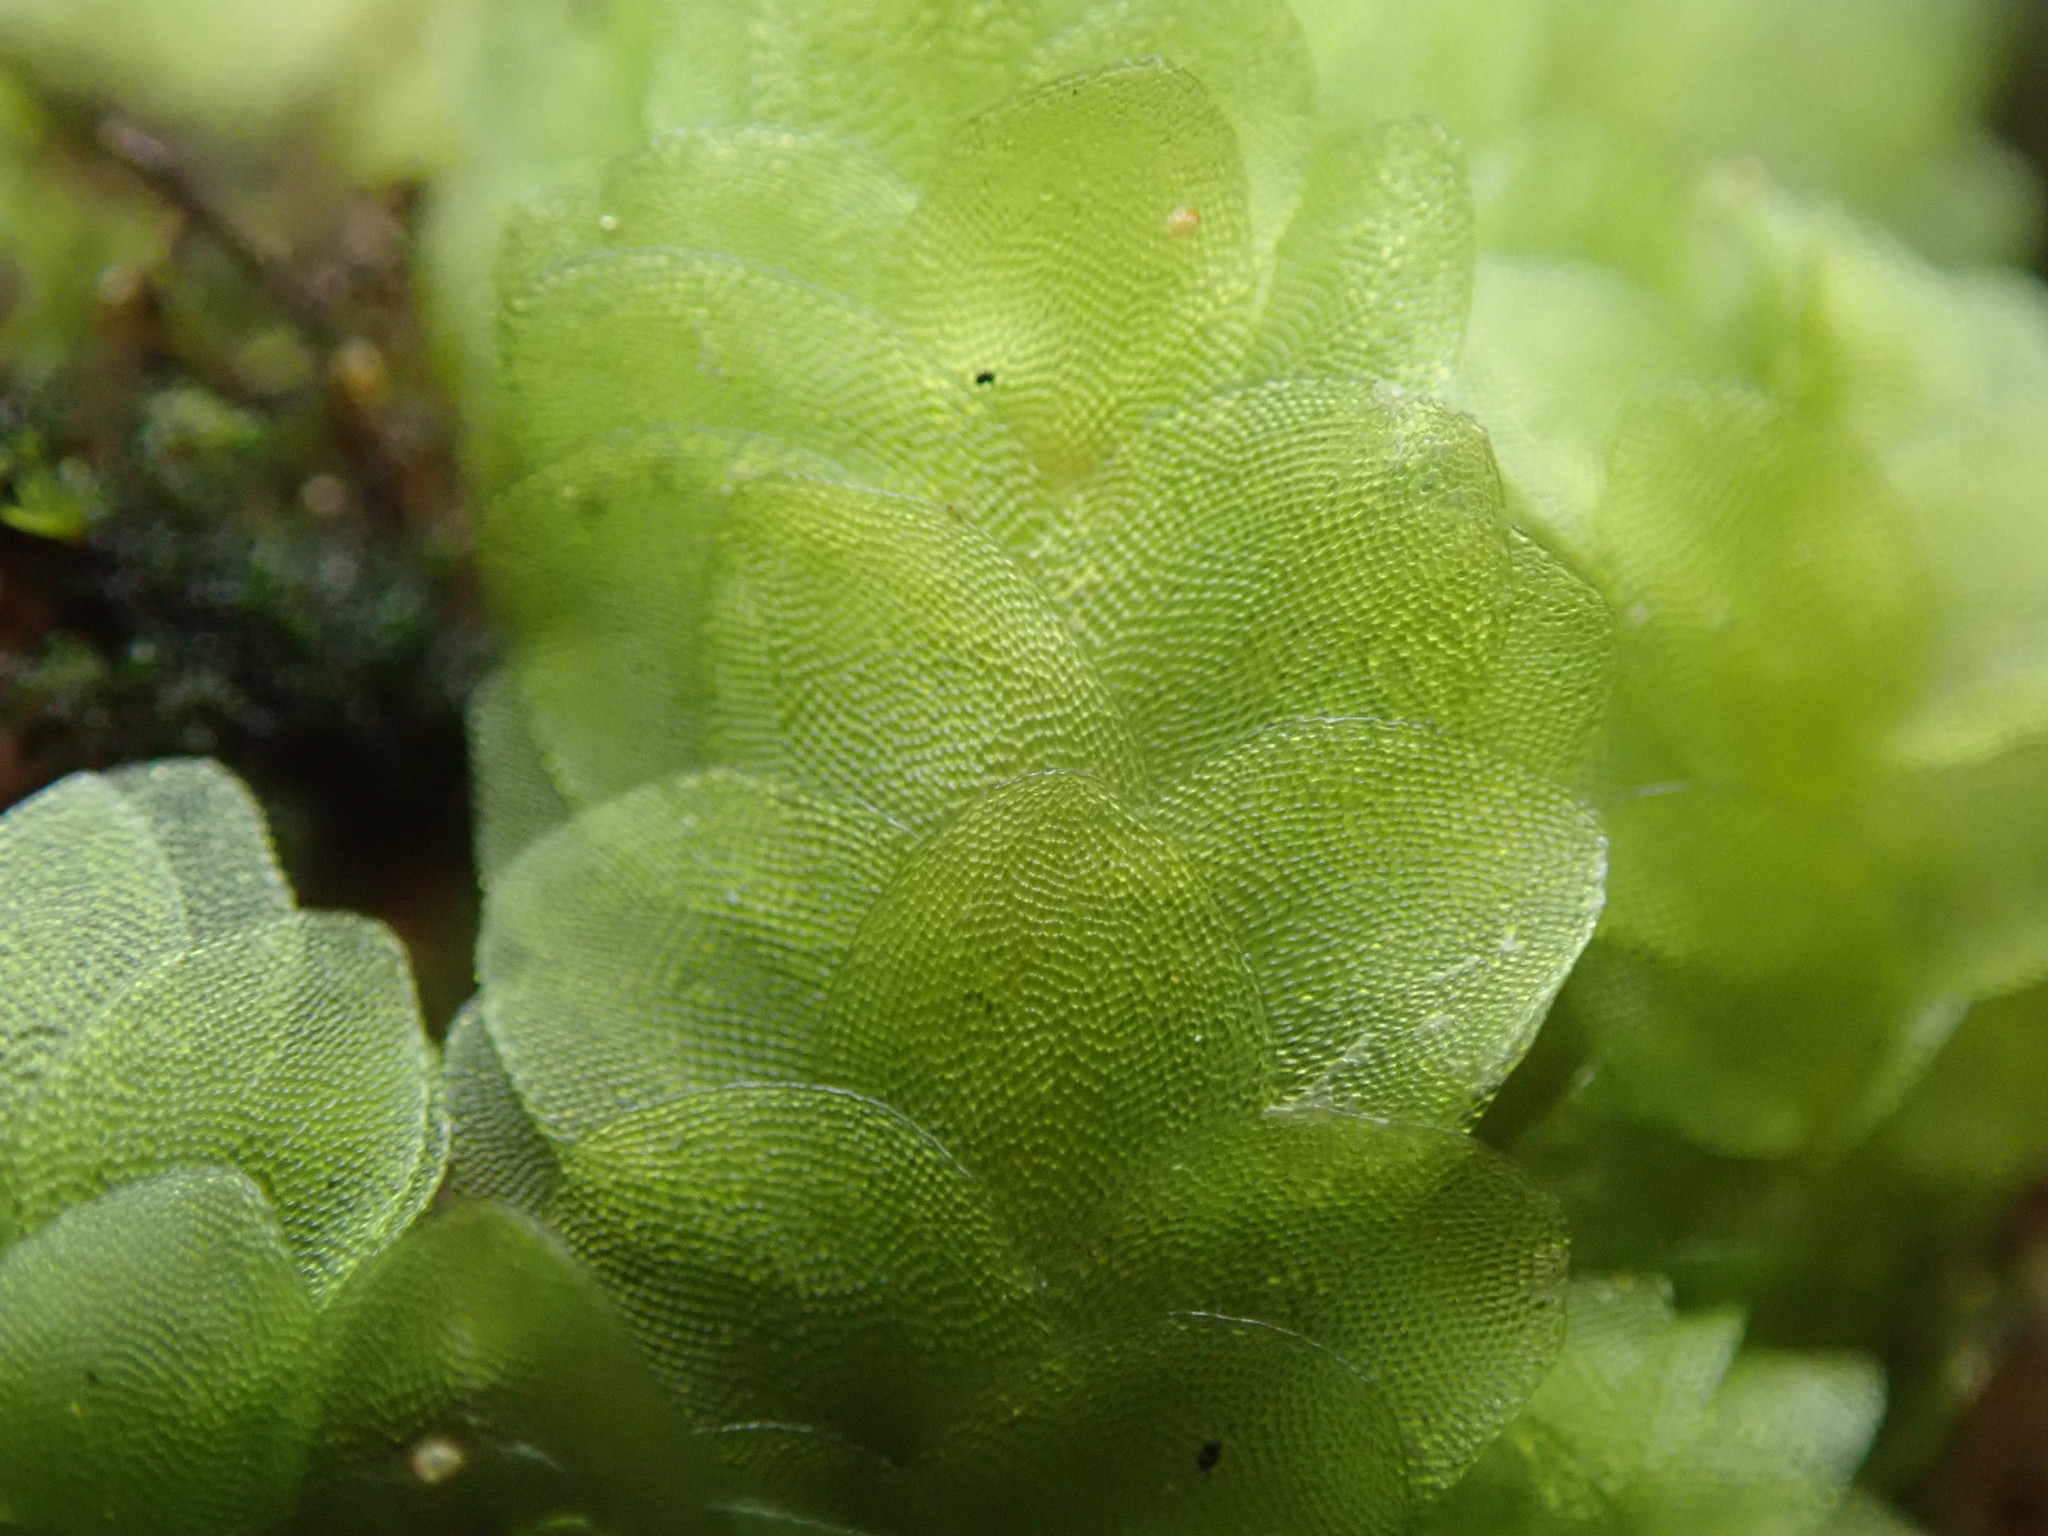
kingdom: Plantae
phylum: Bryophyta
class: Bryopsida
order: Hookeriales
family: Hookeriaceae
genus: Hookeria
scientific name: Hookeria lucens
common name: Shining hookeria
